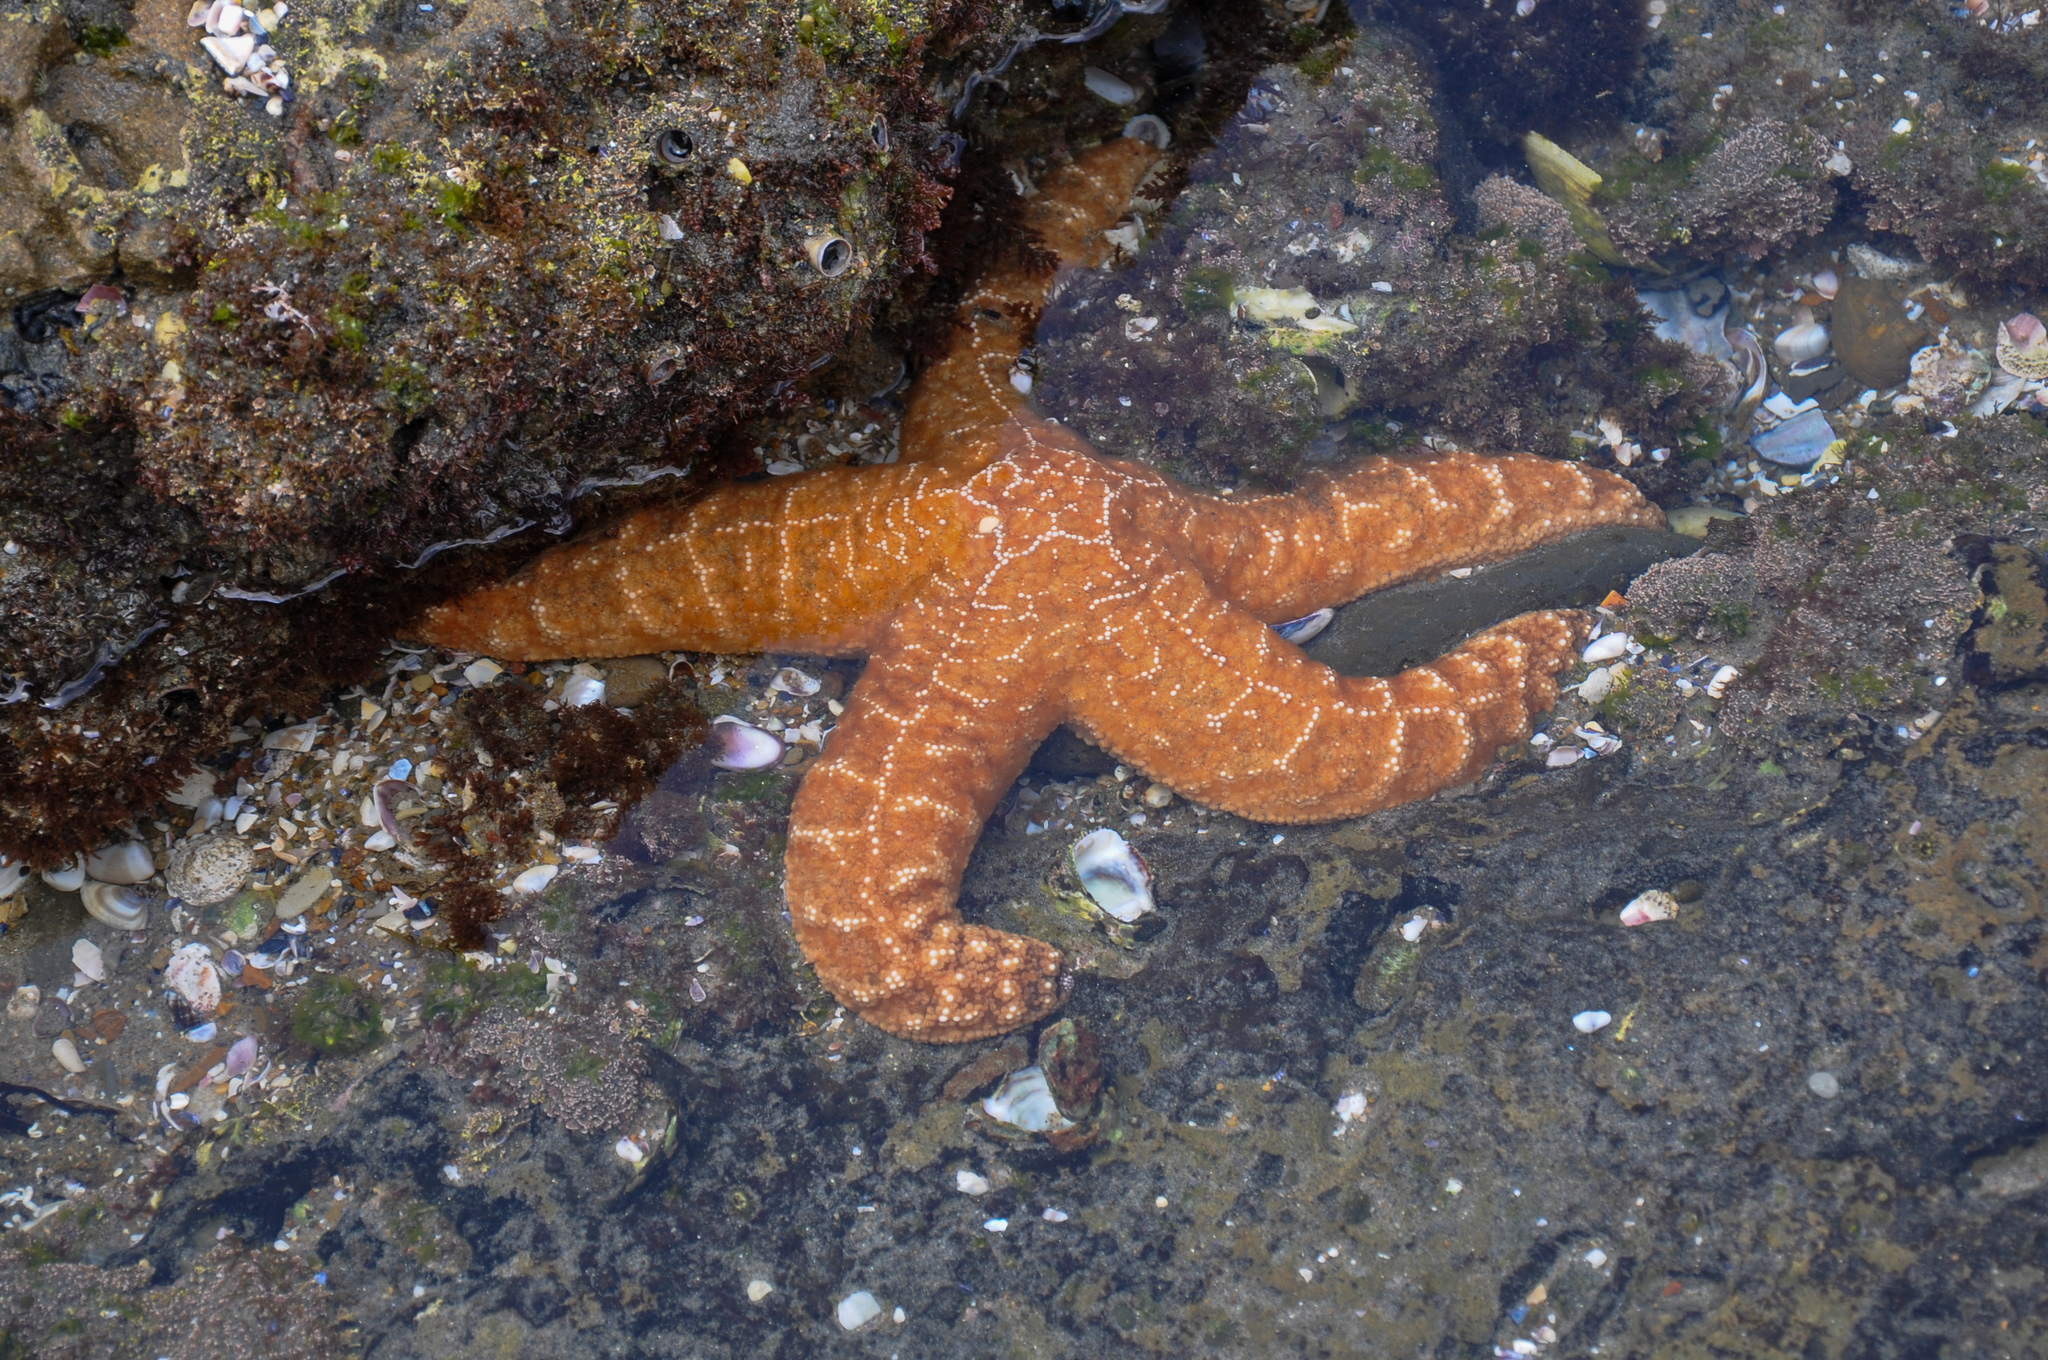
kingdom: Animalia
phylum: Echinodermata
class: Asteroidea
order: Forcipulatida
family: Asteriidae
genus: Pisaster
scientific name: Pisaster ochraceus
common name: Ochre stars
